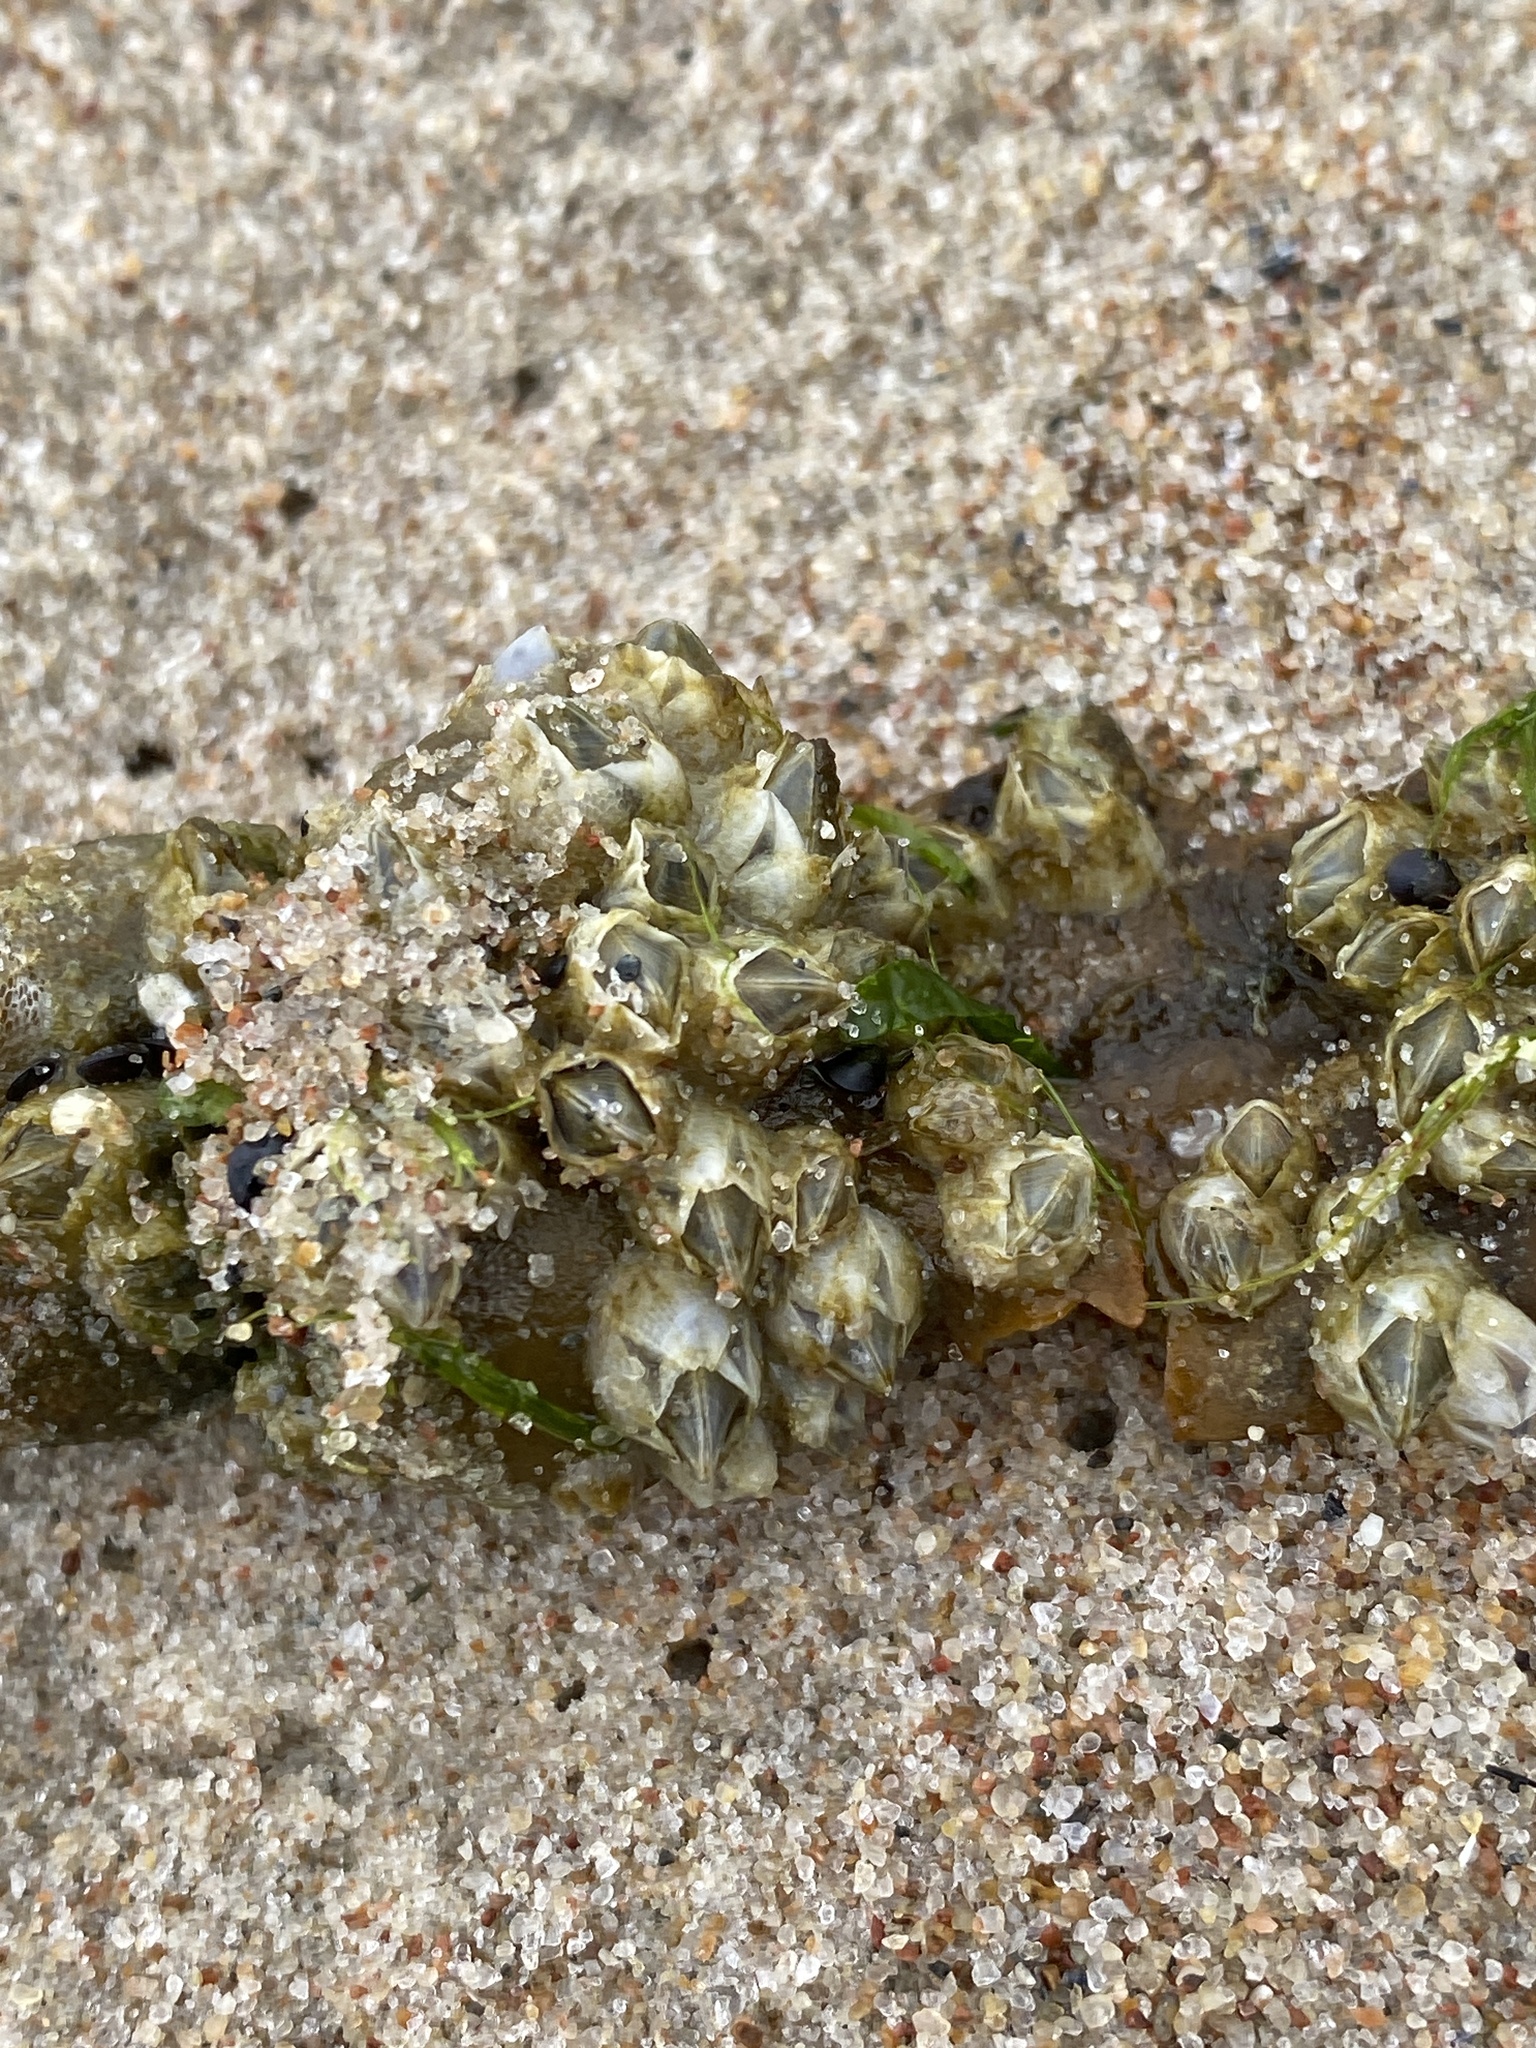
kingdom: Animalia
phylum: Arthropoda
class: Maxillopoda
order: Sessilia
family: Balanidae
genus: Amphibalanus
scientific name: Amphibalanus improvisus
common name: Bay barnacle
